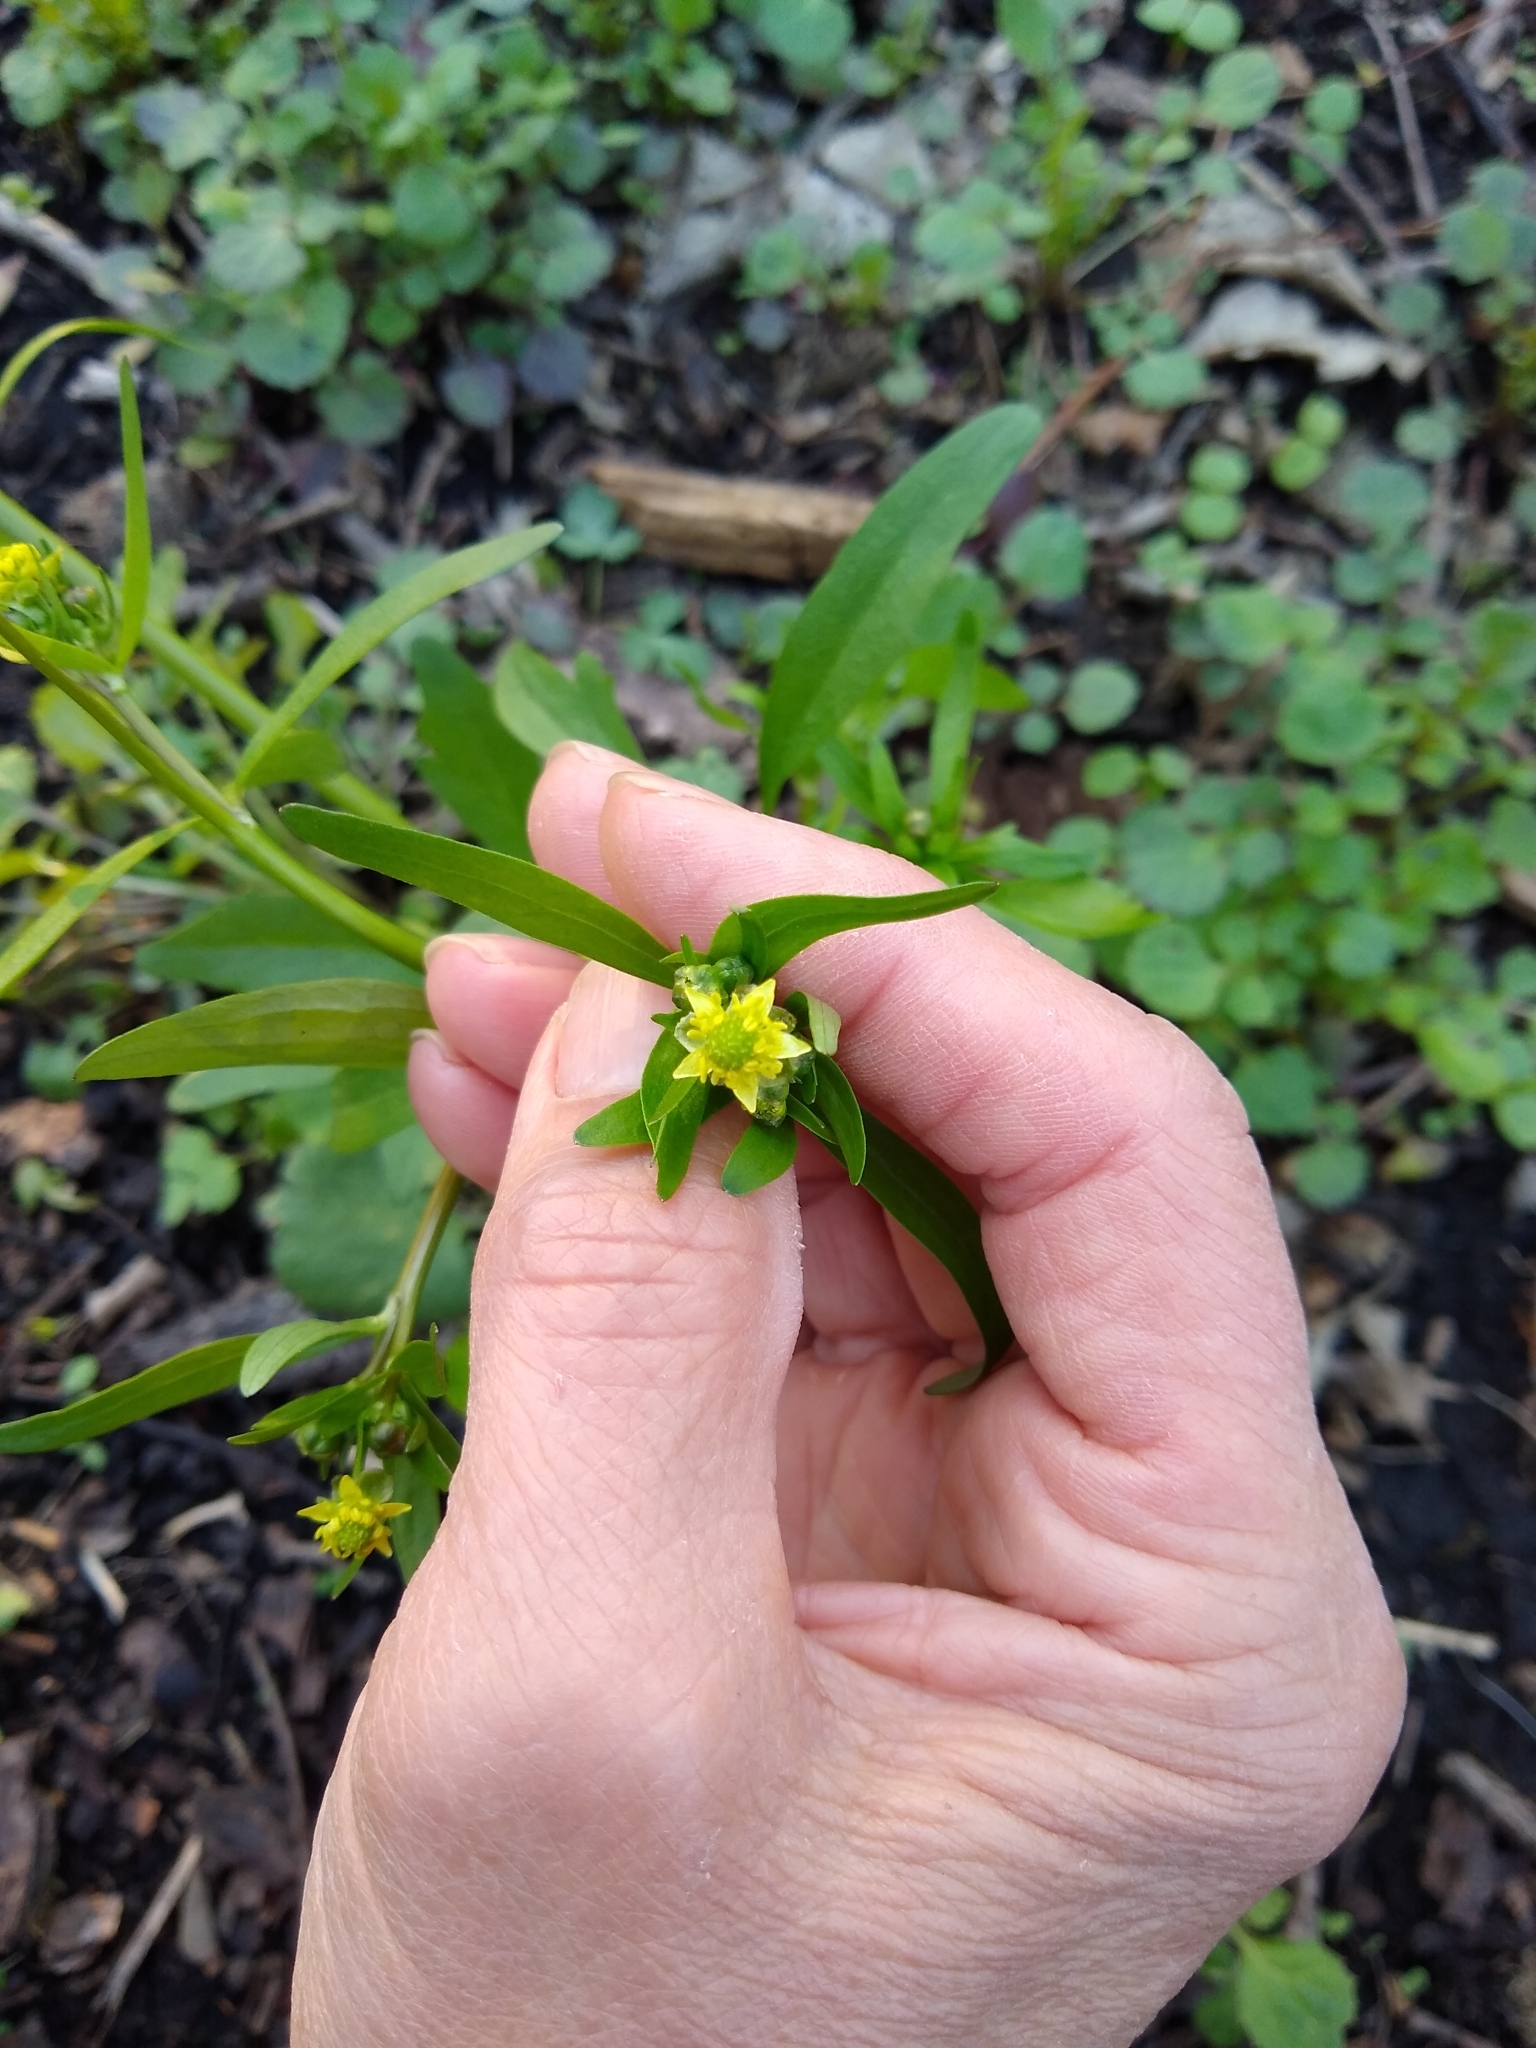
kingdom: Plantae
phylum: Tracheophyta
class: Magnoliopsida
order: Ranunculales
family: Ranunculaceae
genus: Ranunculus
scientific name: Ranunculus abortivus
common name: Early wood buttercup
